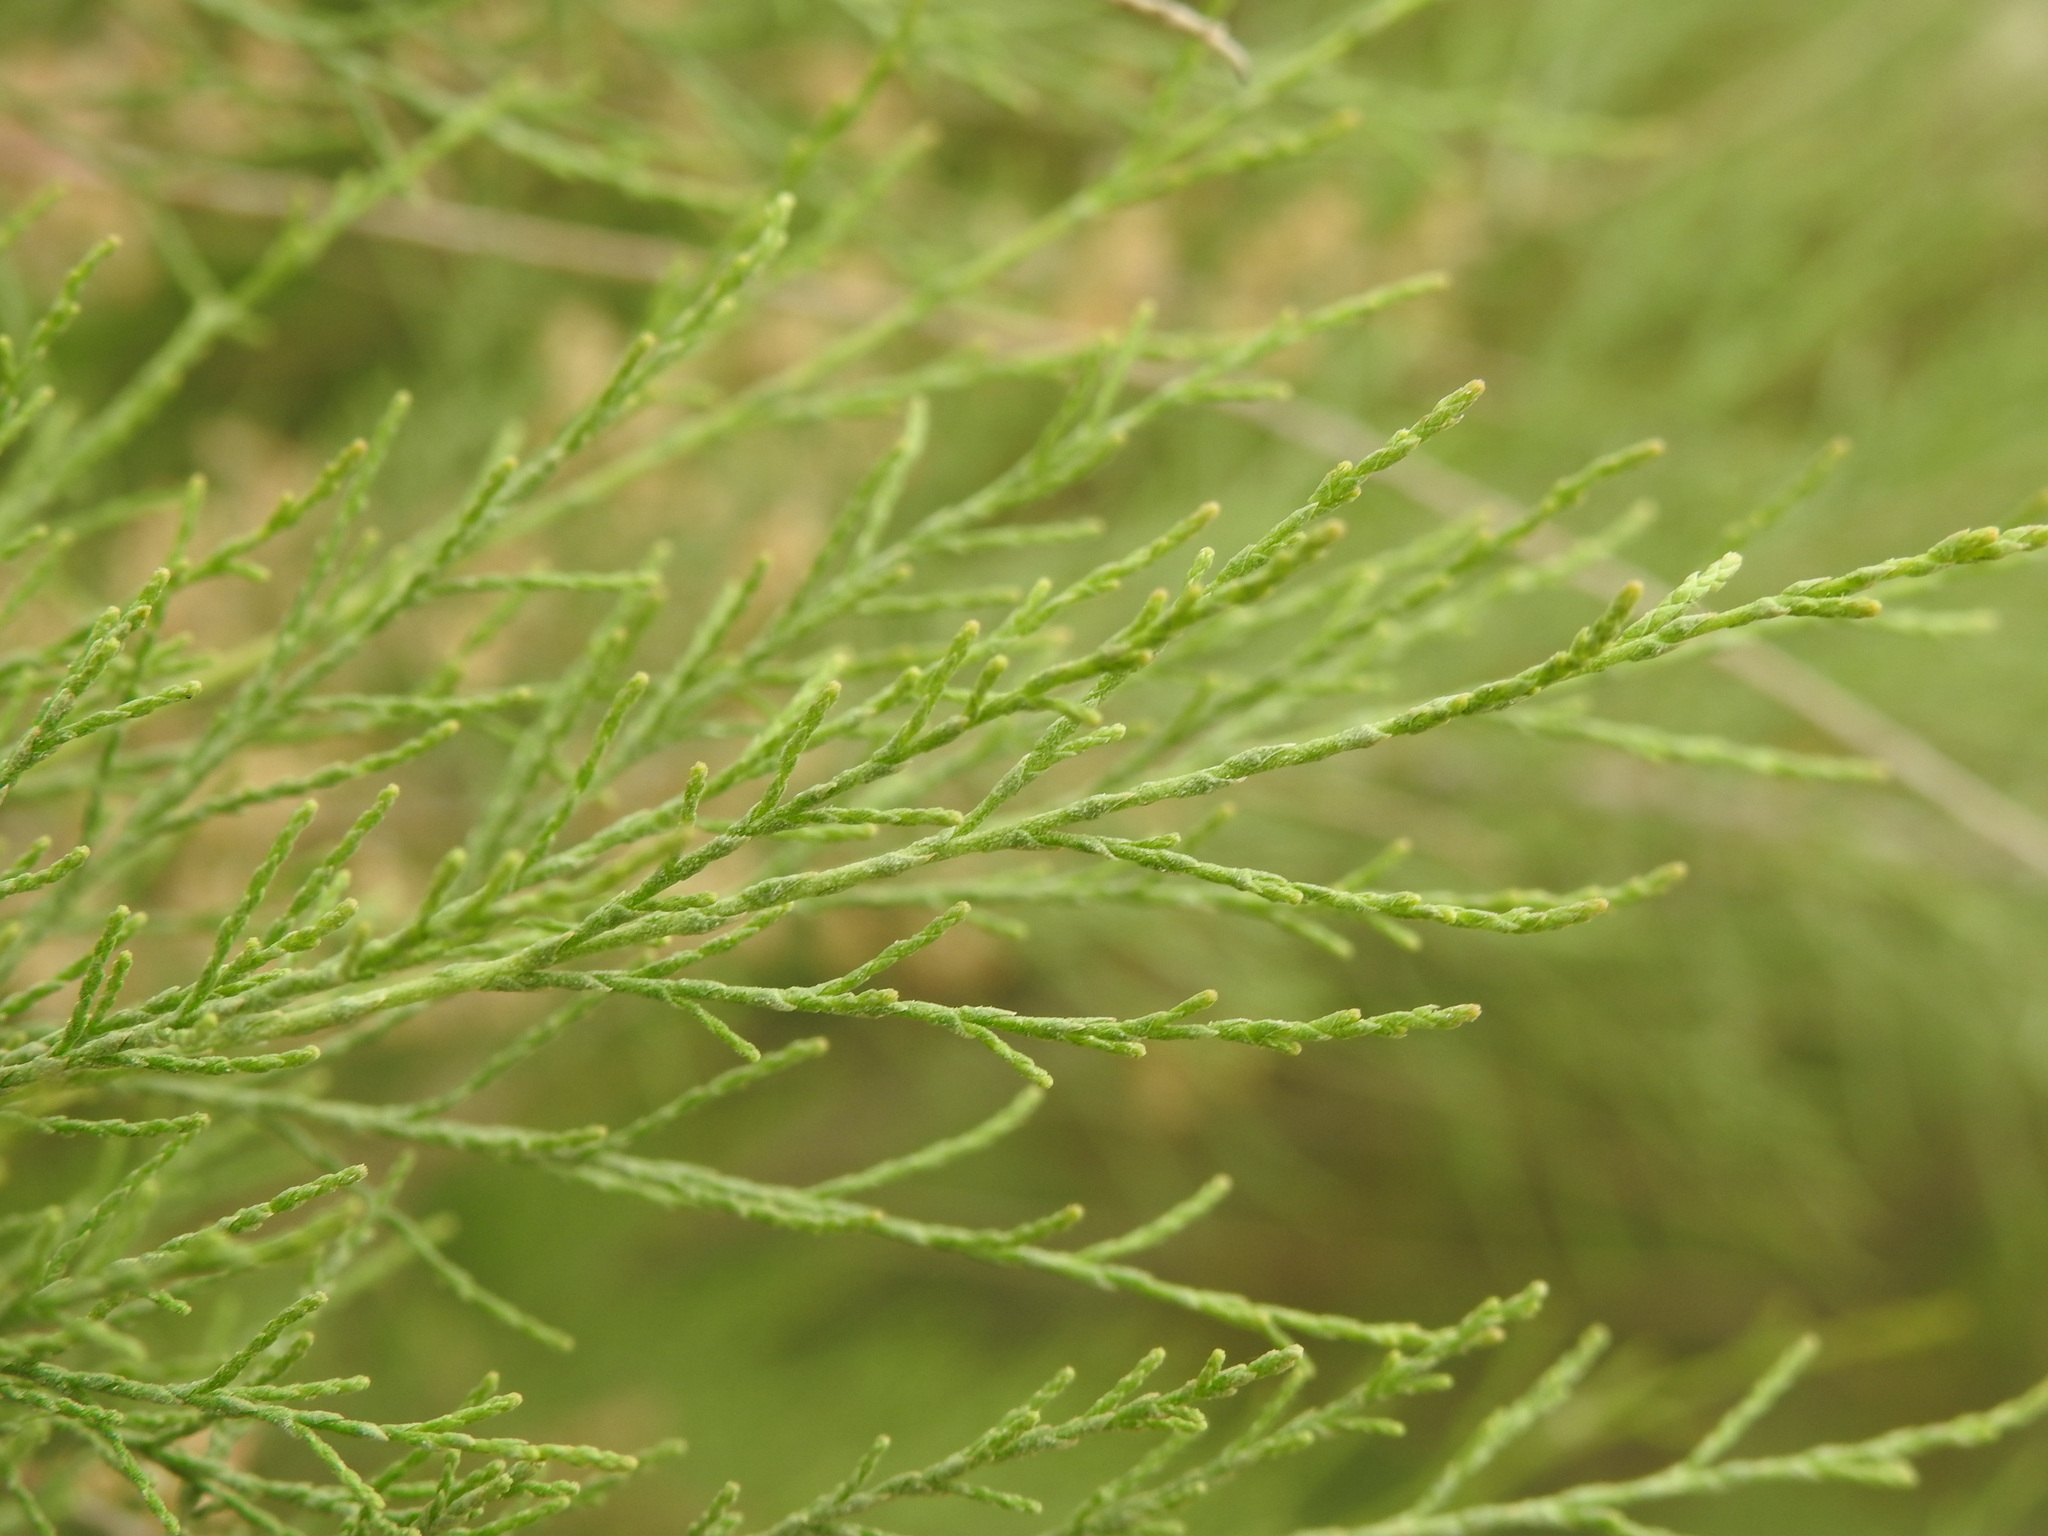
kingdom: Plantae
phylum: Tracheophyta
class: Magnoliopsida
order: Caryophyllales
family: Tamaricaceae
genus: Tamarix
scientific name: Tamarix parviflora
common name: Smallflower tamarisk
